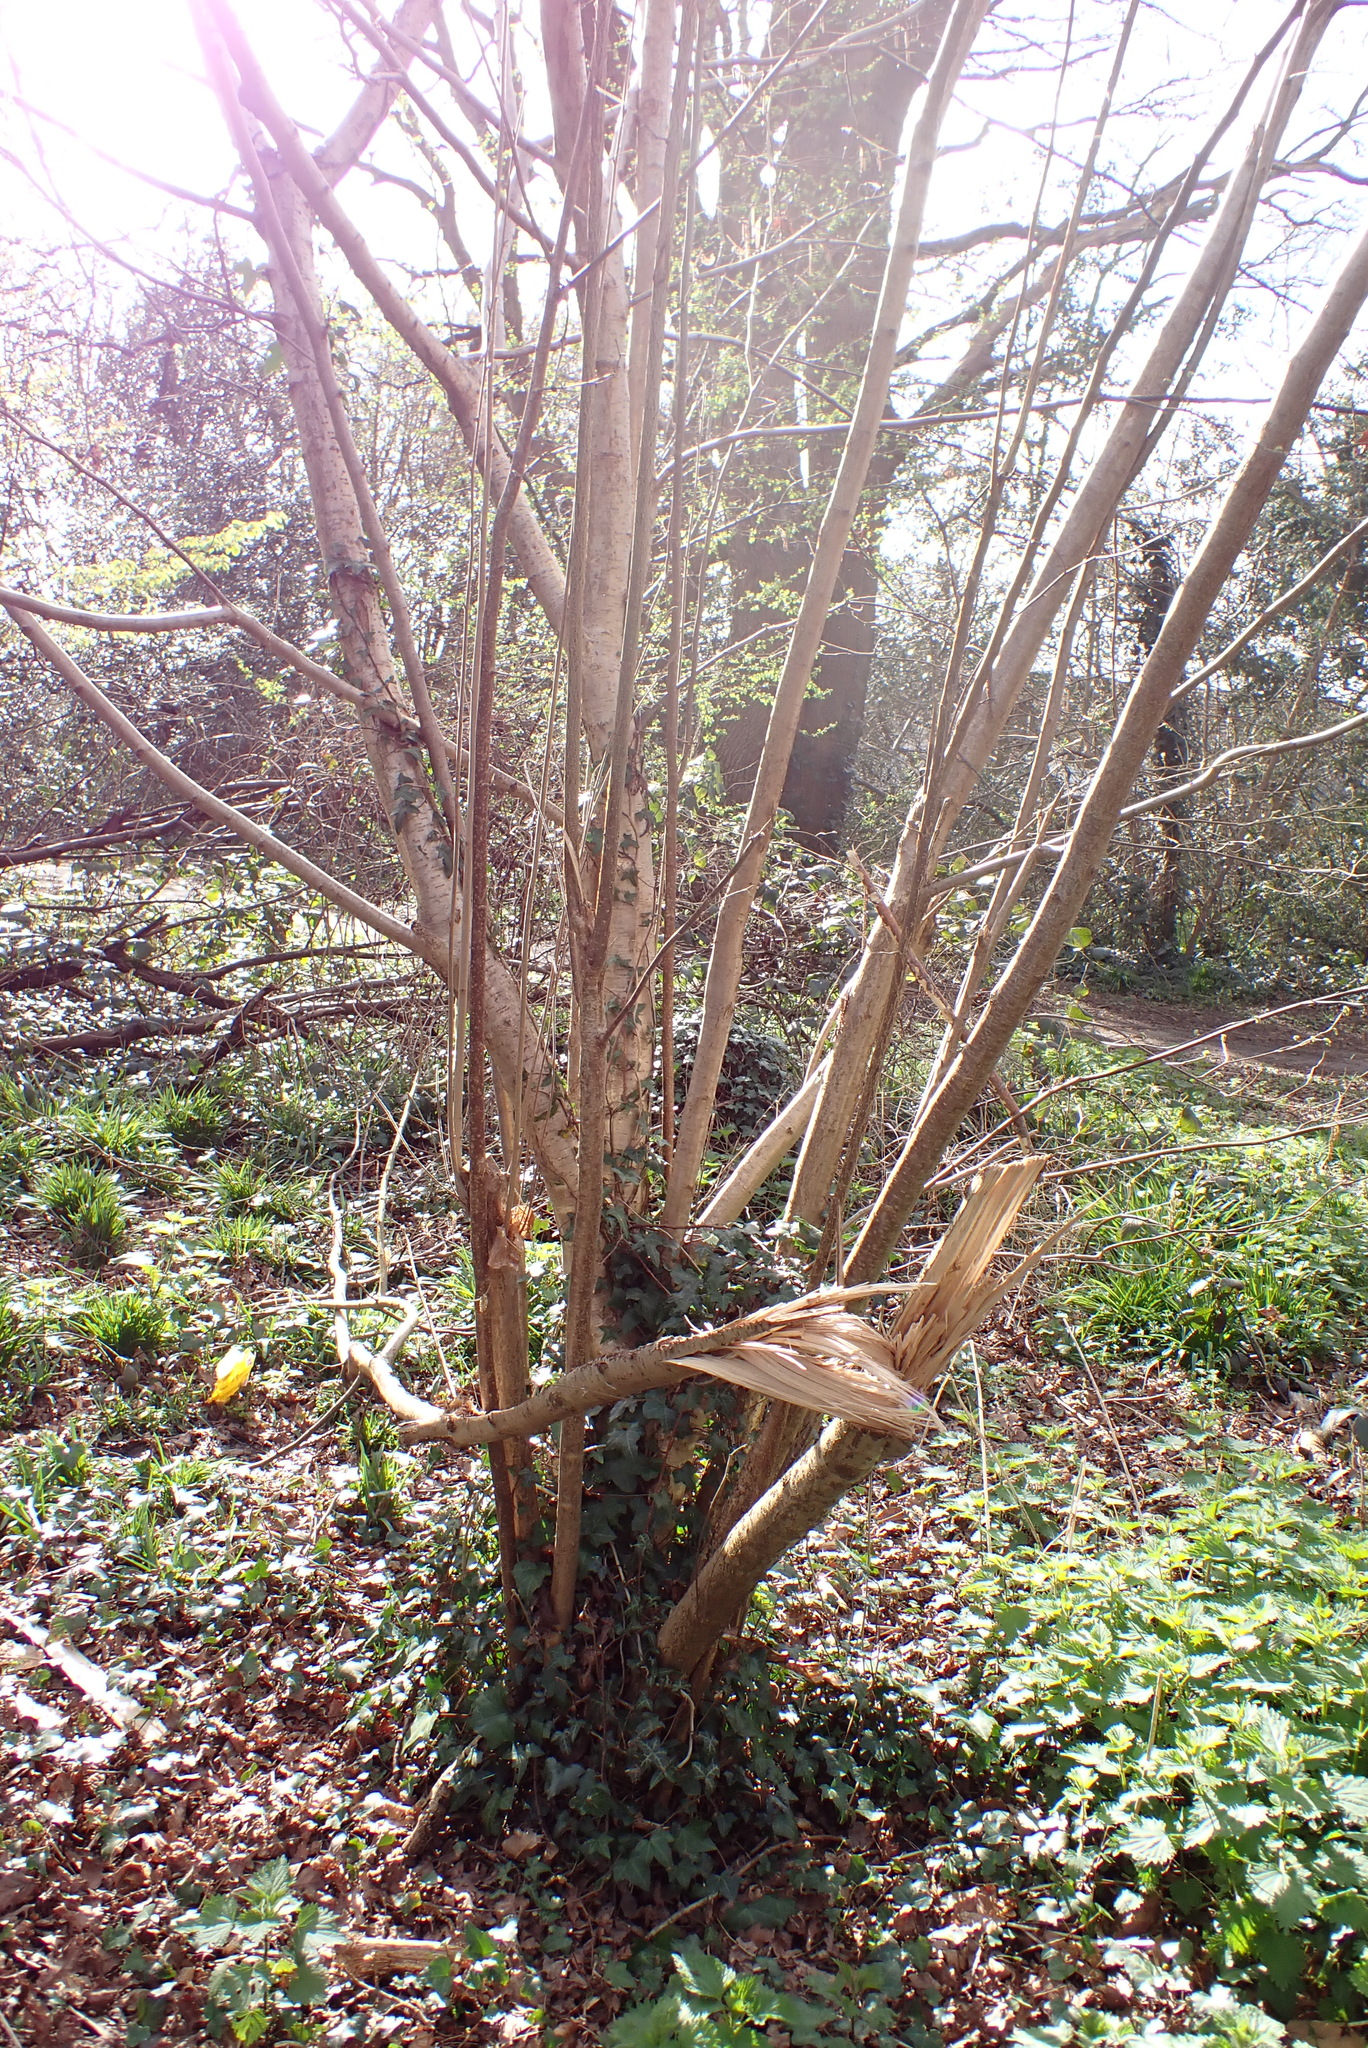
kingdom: Plantae
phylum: Tracheophyta
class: Magnoliopsida
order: Fagales
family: Betulaceae
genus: Corylus
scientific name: Corylus avellana
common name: European hazel
